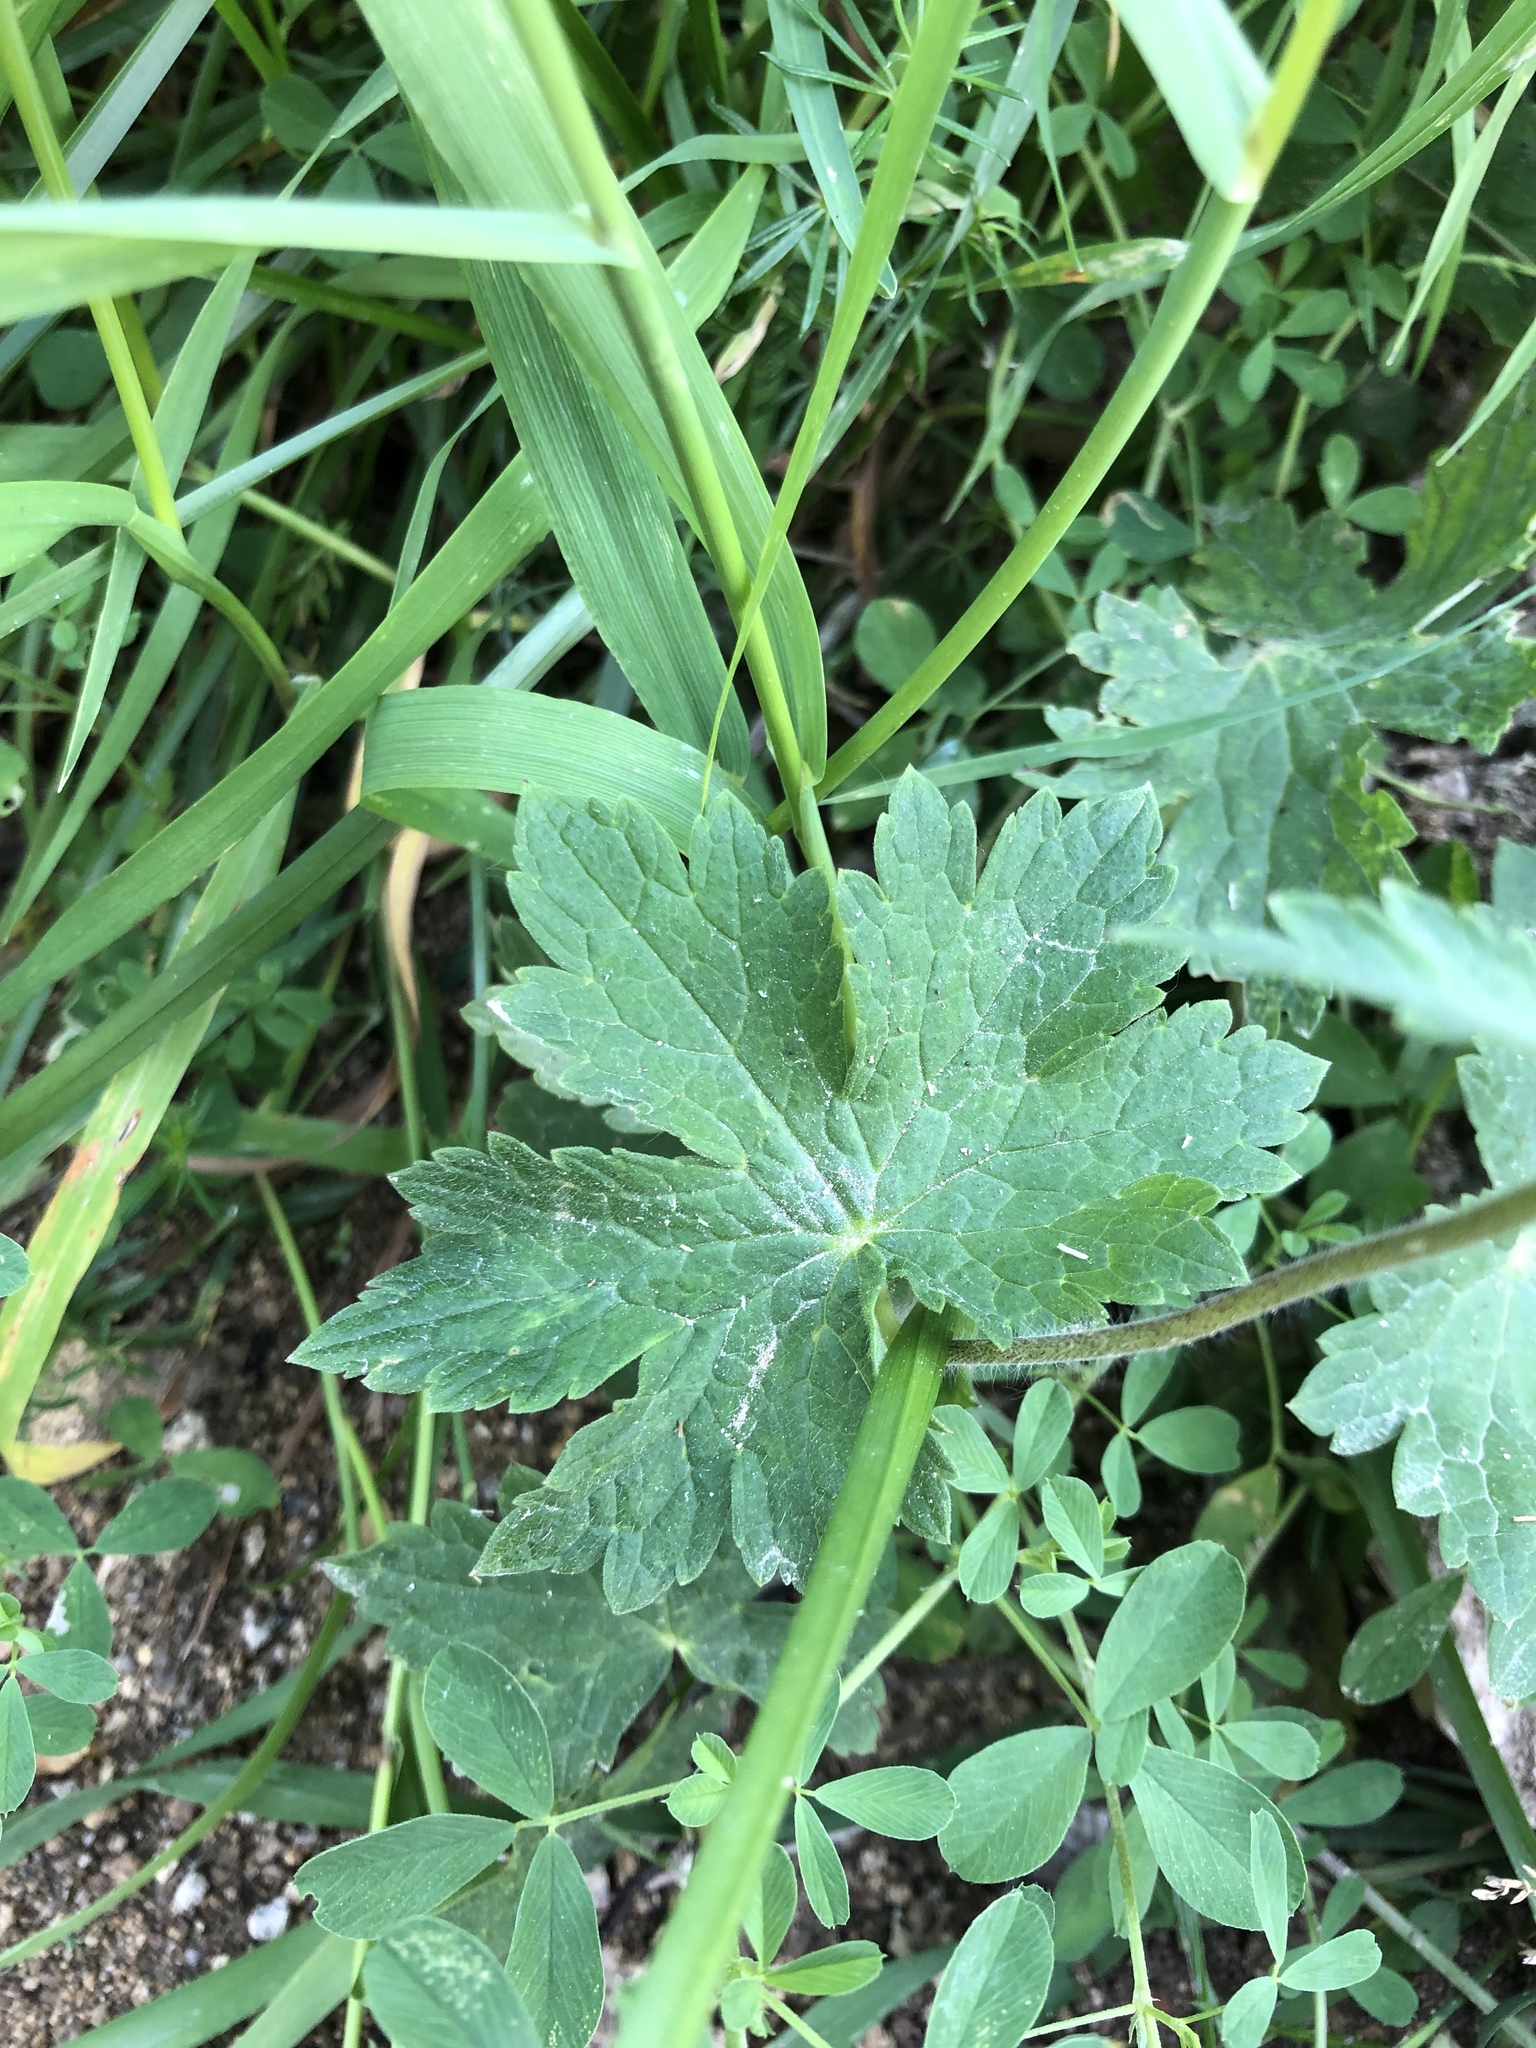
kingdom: Plantae
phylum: Tracheophyta
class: Magnoliopsida
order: Geraniales
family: Geraniaceae
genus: Geranium
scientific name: Geranium phaeum
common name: Dusky crane's-bill
